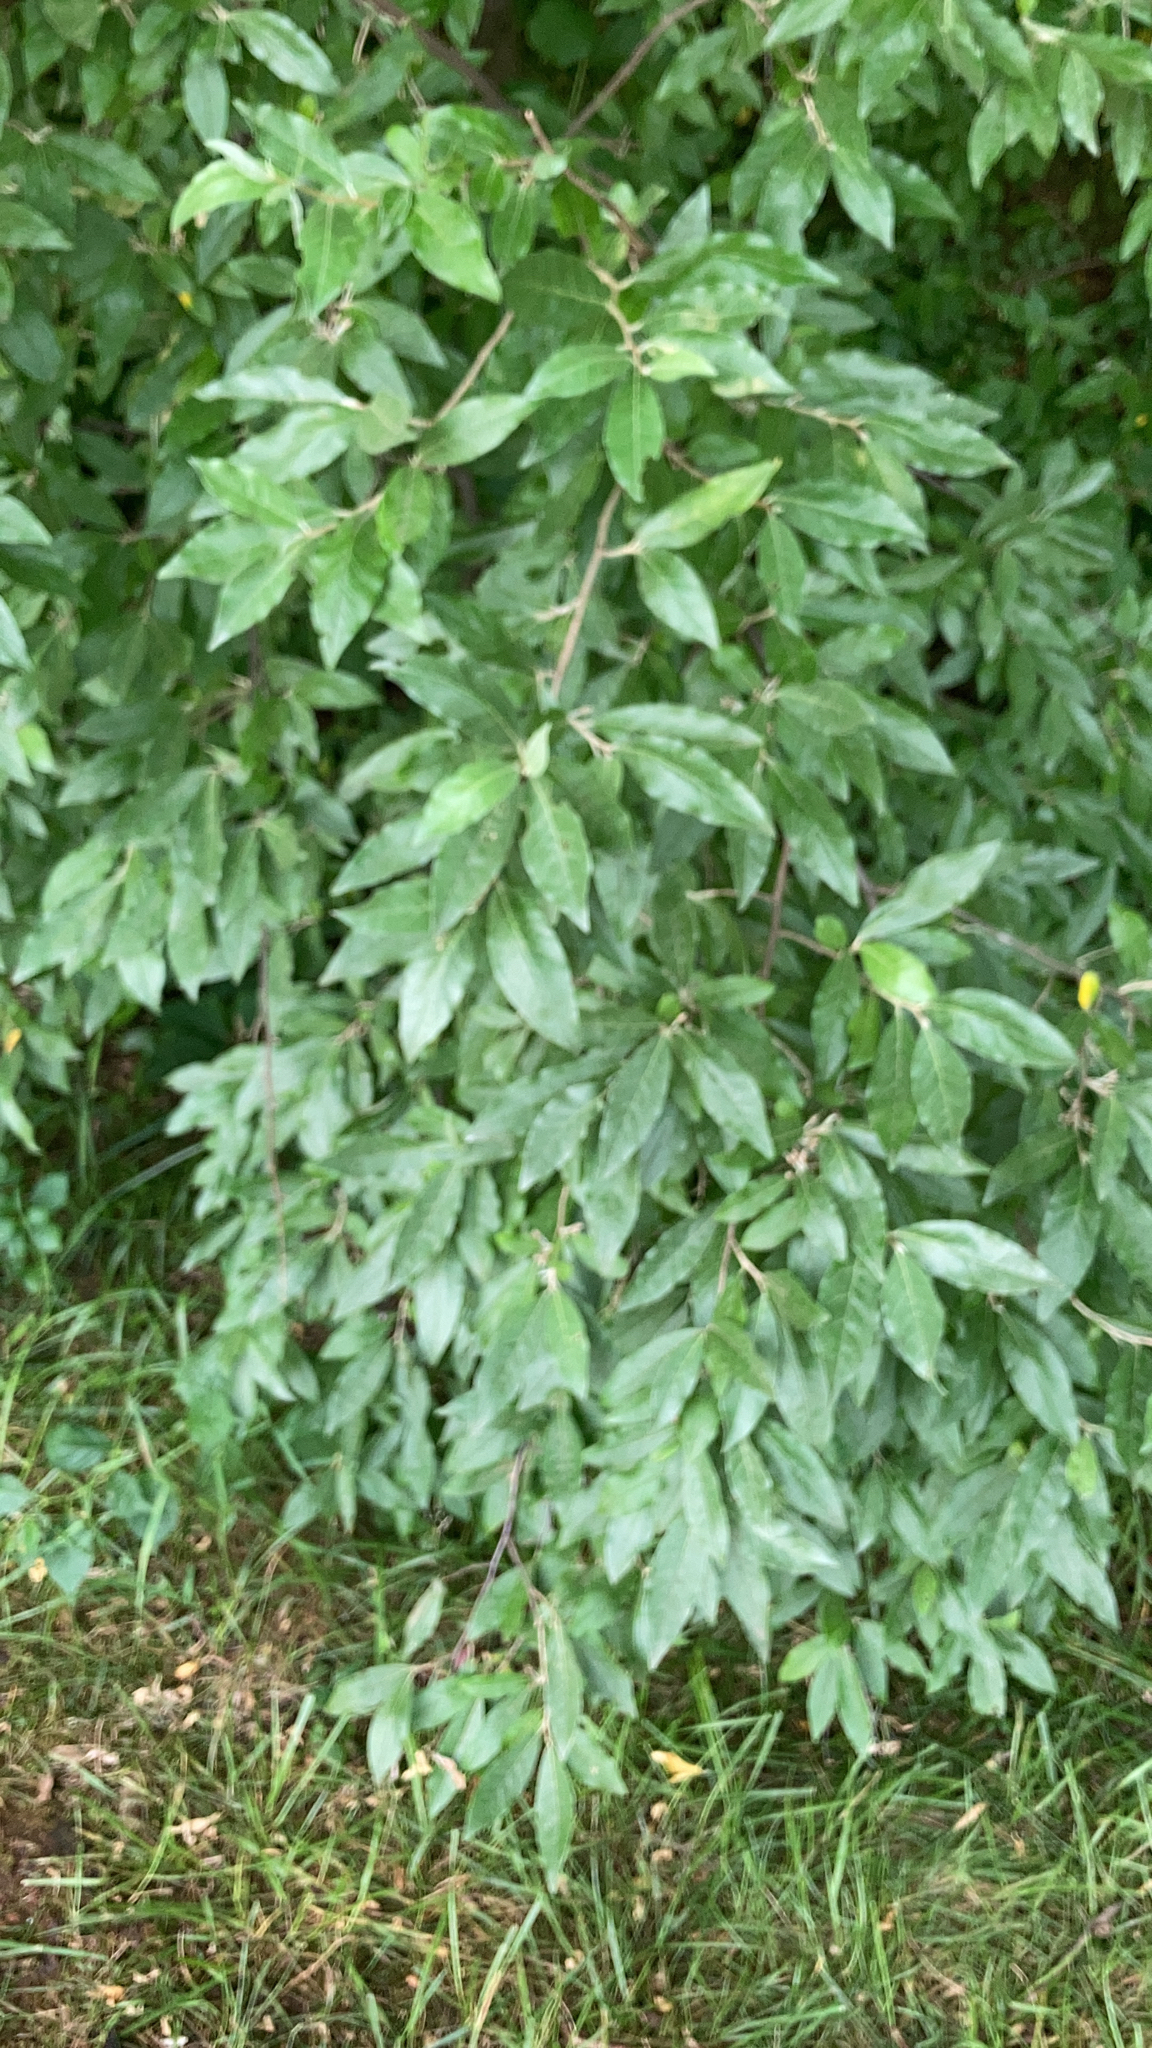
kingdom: Plantae
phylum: Tracheophyta
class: Magnoliopsida
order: Rosales
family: Elaeagnaceae
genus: Elaeagnus
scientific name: Elaeagnus umbellata
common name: Autumn olive
